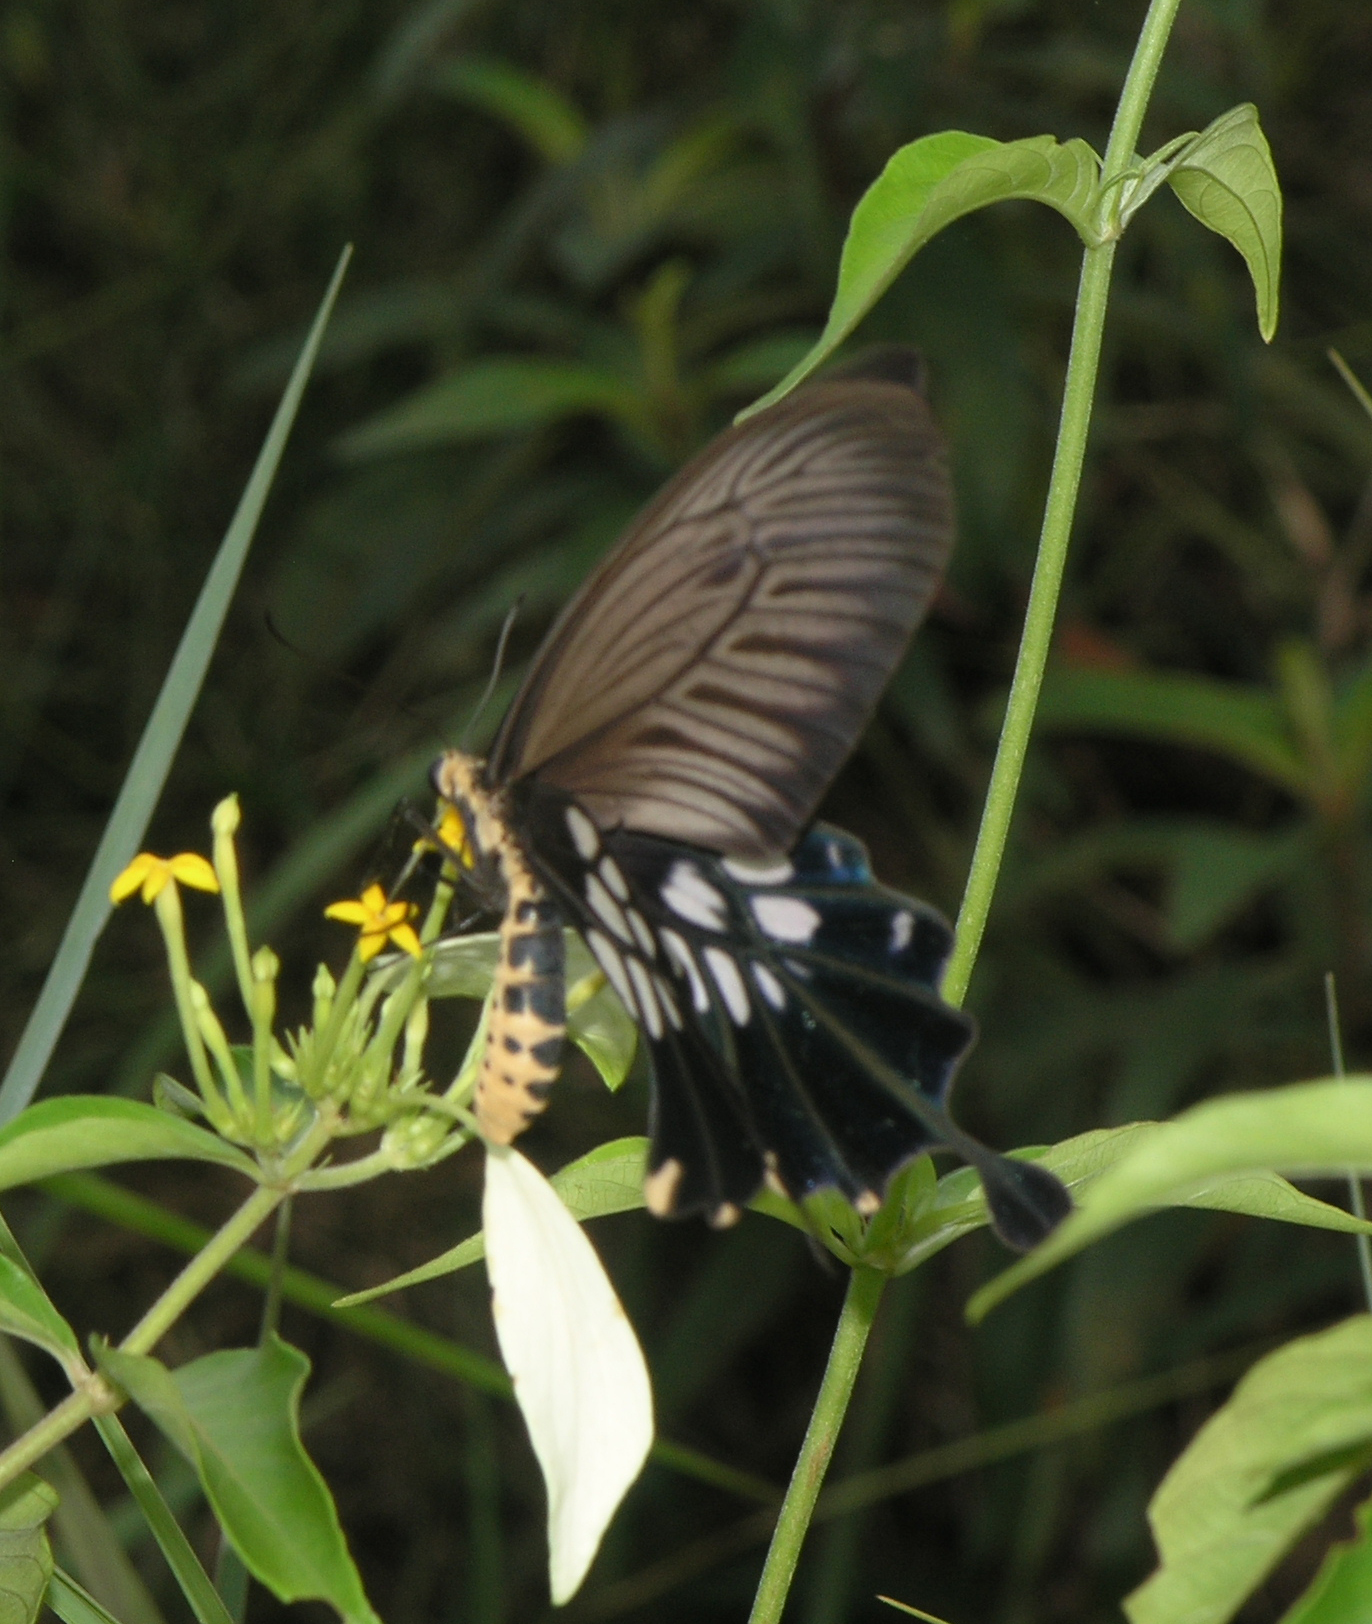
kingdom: Animalia
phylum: Arthropoda
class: Insecta
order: Lepidoptera
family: Papilionidae
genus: Losaria
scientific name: Losaria
